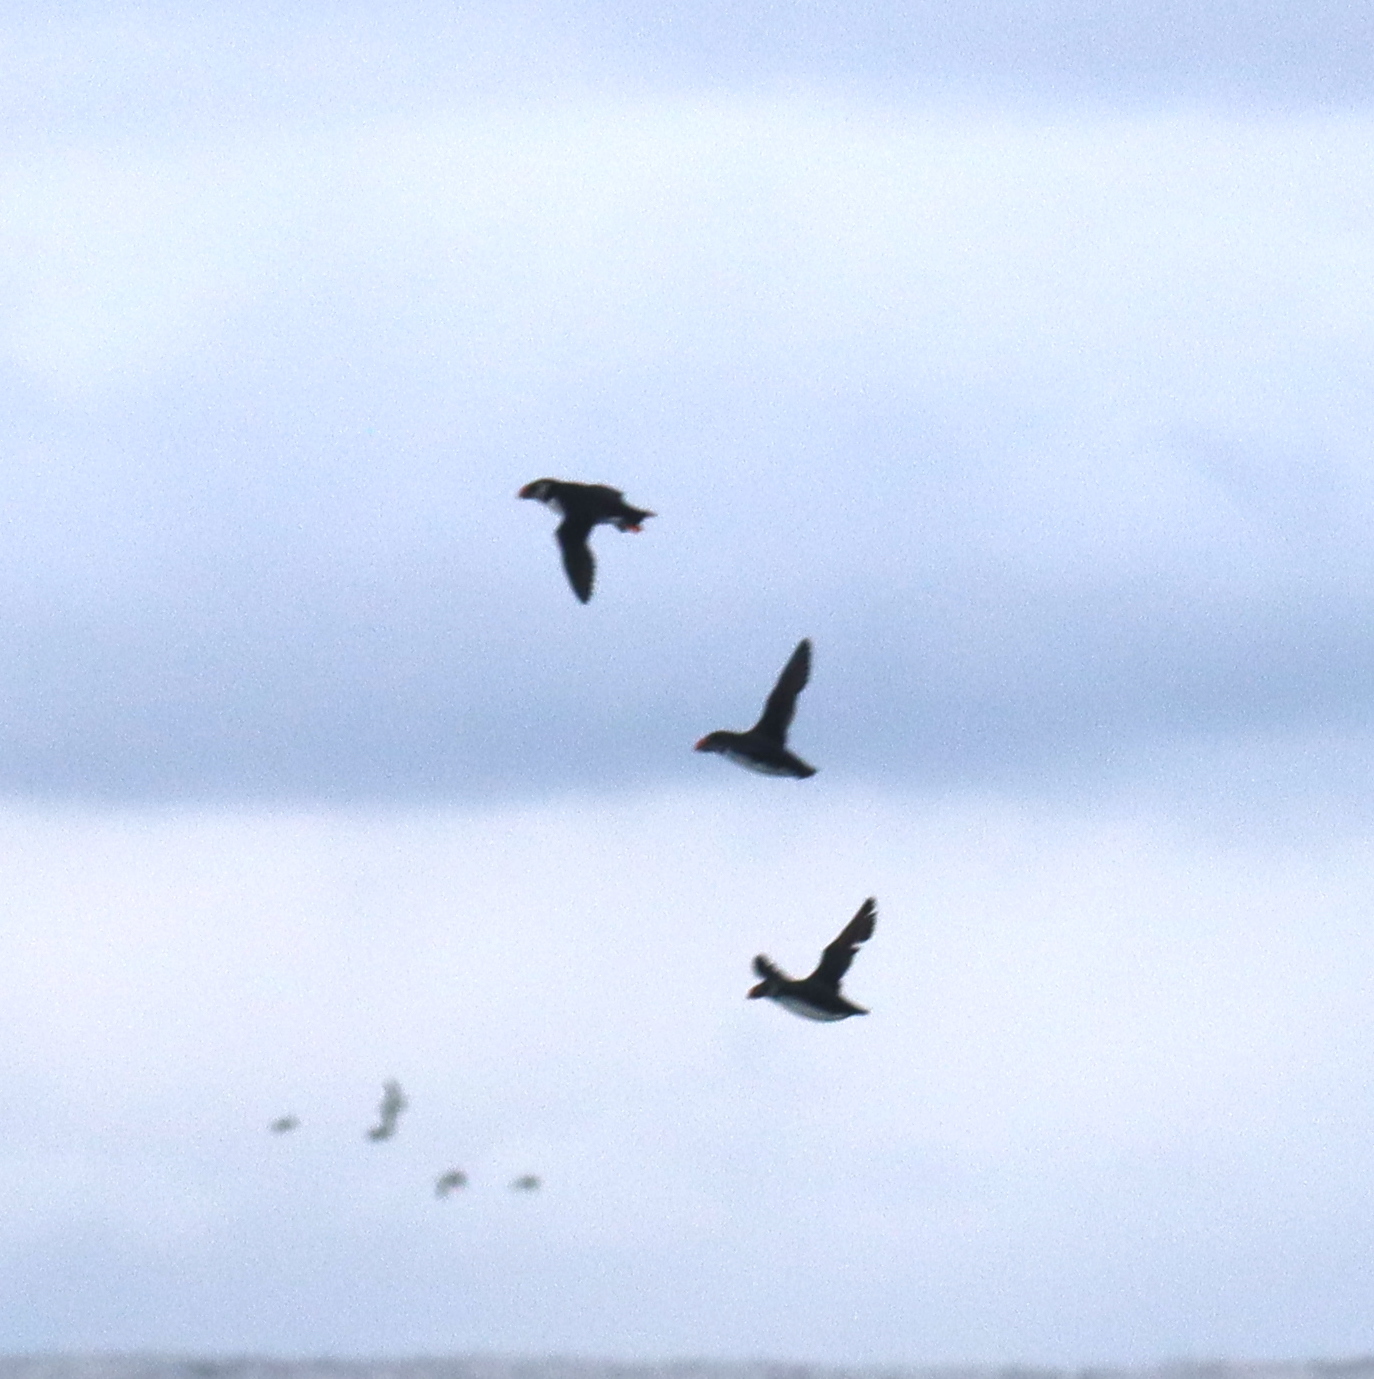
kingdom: Animalia
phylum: Chordata
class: Aves
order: Charadriiformes
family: Alcidae
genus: Fratercula
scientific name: Fratercula arctica
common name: Atlantic puffin
